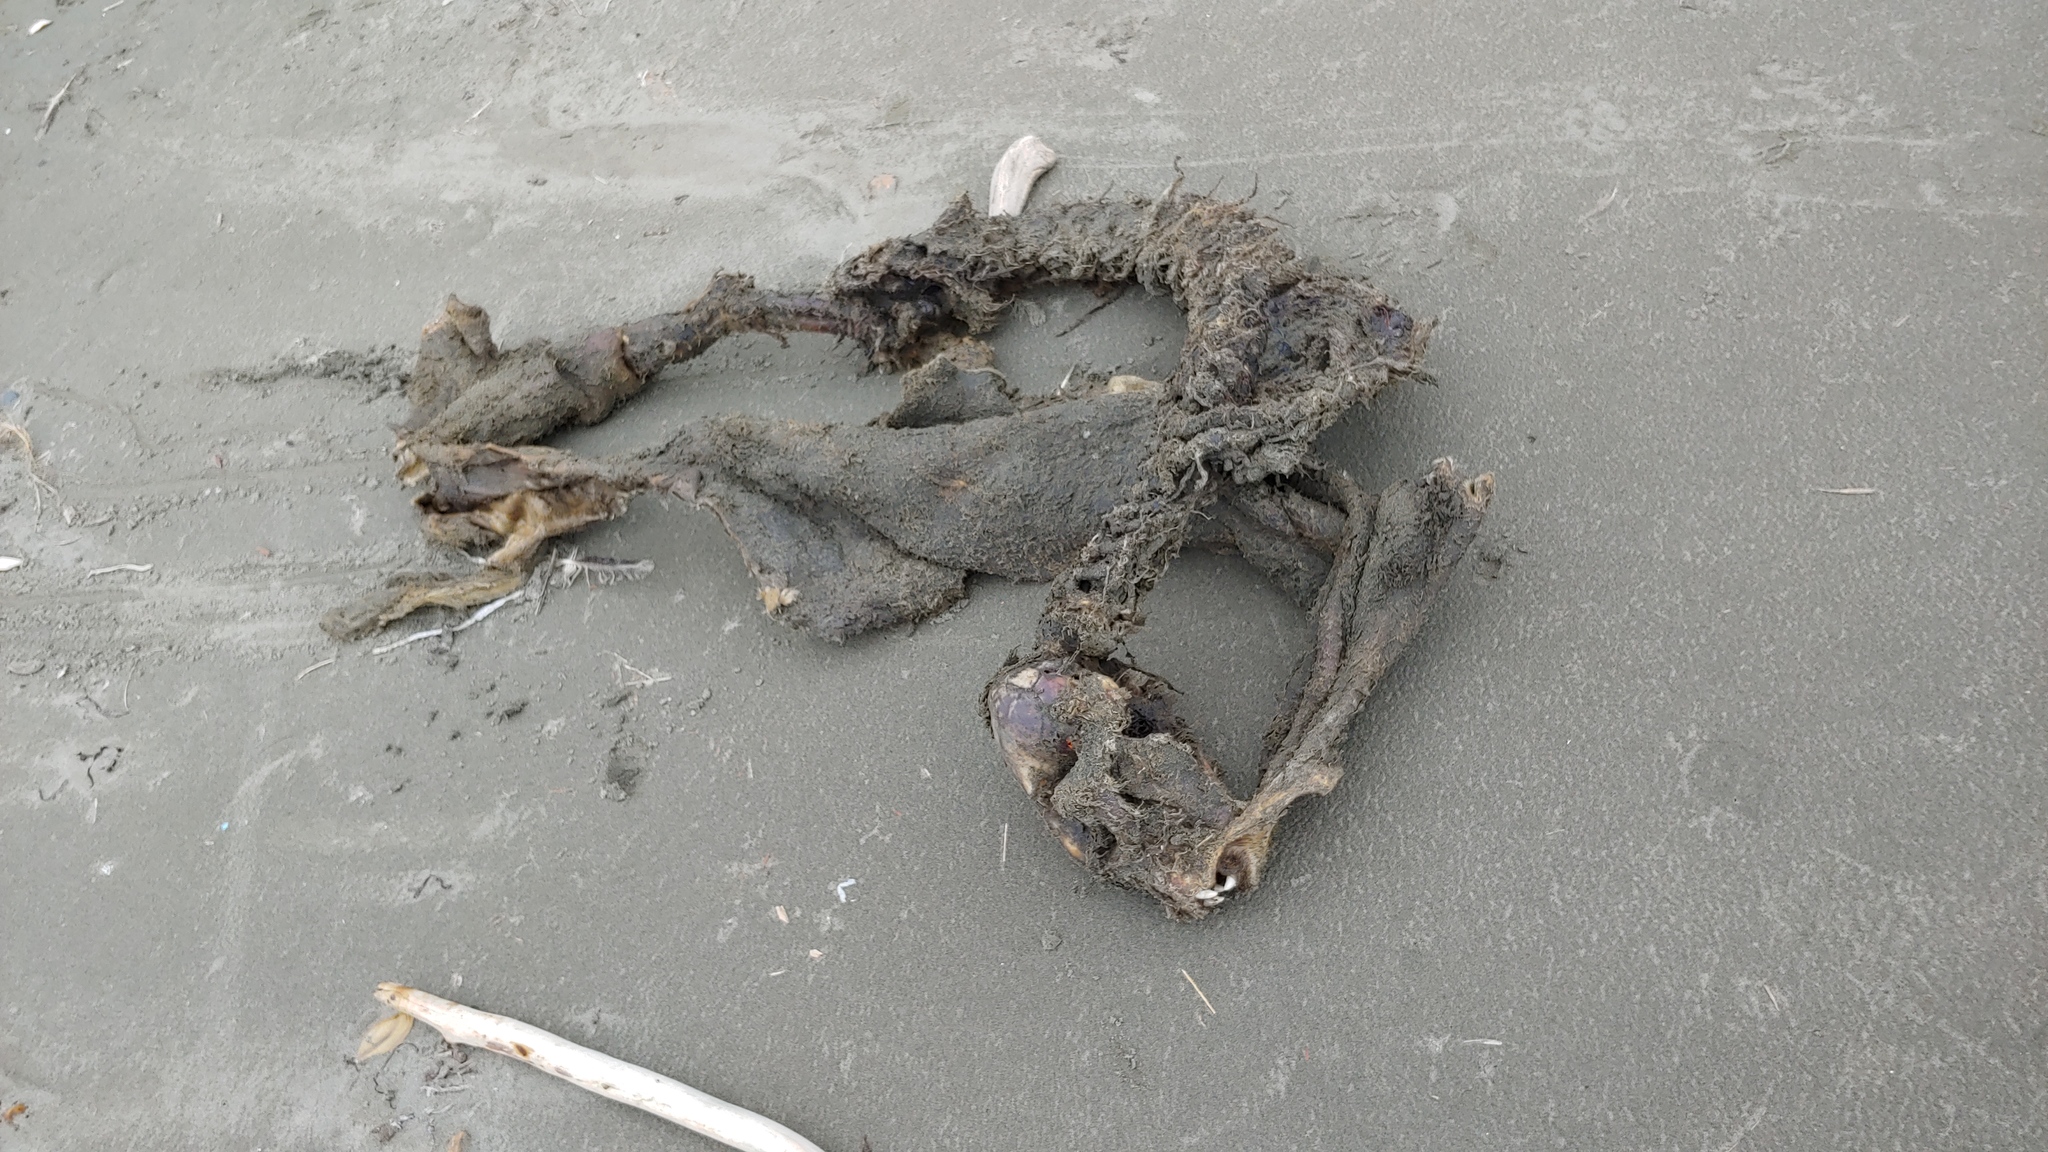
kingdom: Animalia
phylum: Chordata
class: Mammalia
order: Carnivora
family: Phocidae
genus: Phoca
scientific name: Phoca vitulina
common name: Harbor seal
